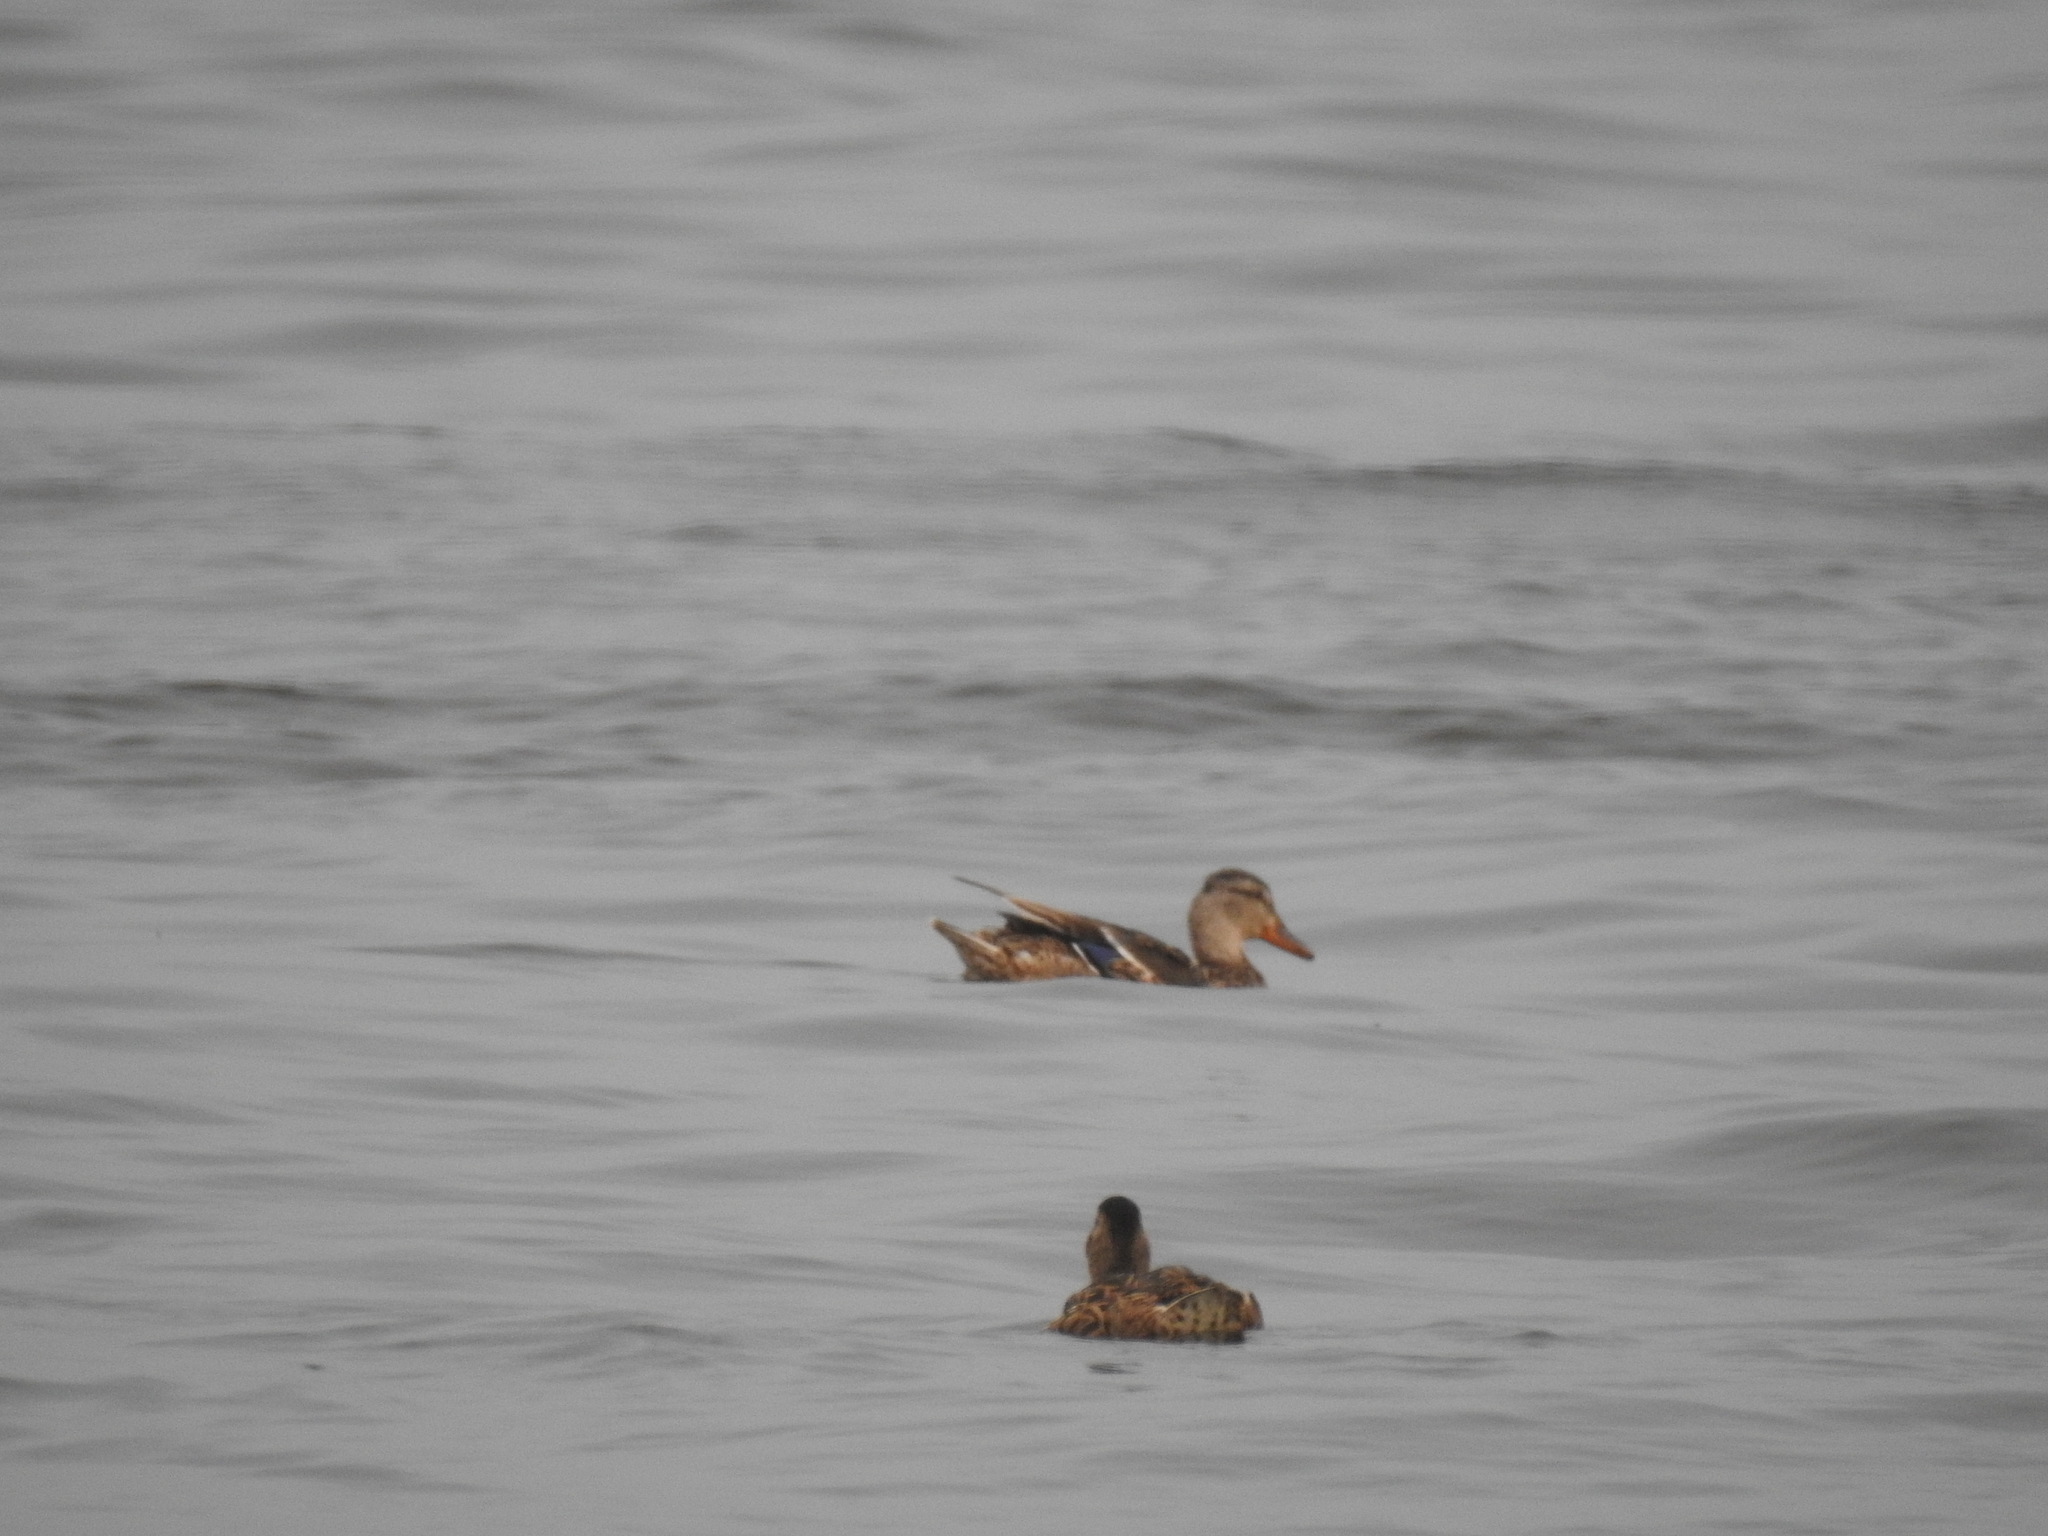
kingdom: Animalia
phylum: Chordata
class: Aves
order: Anseriformes
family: Anatidae
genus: Anas
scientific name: Anas platyrhynchos
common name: Mallard
